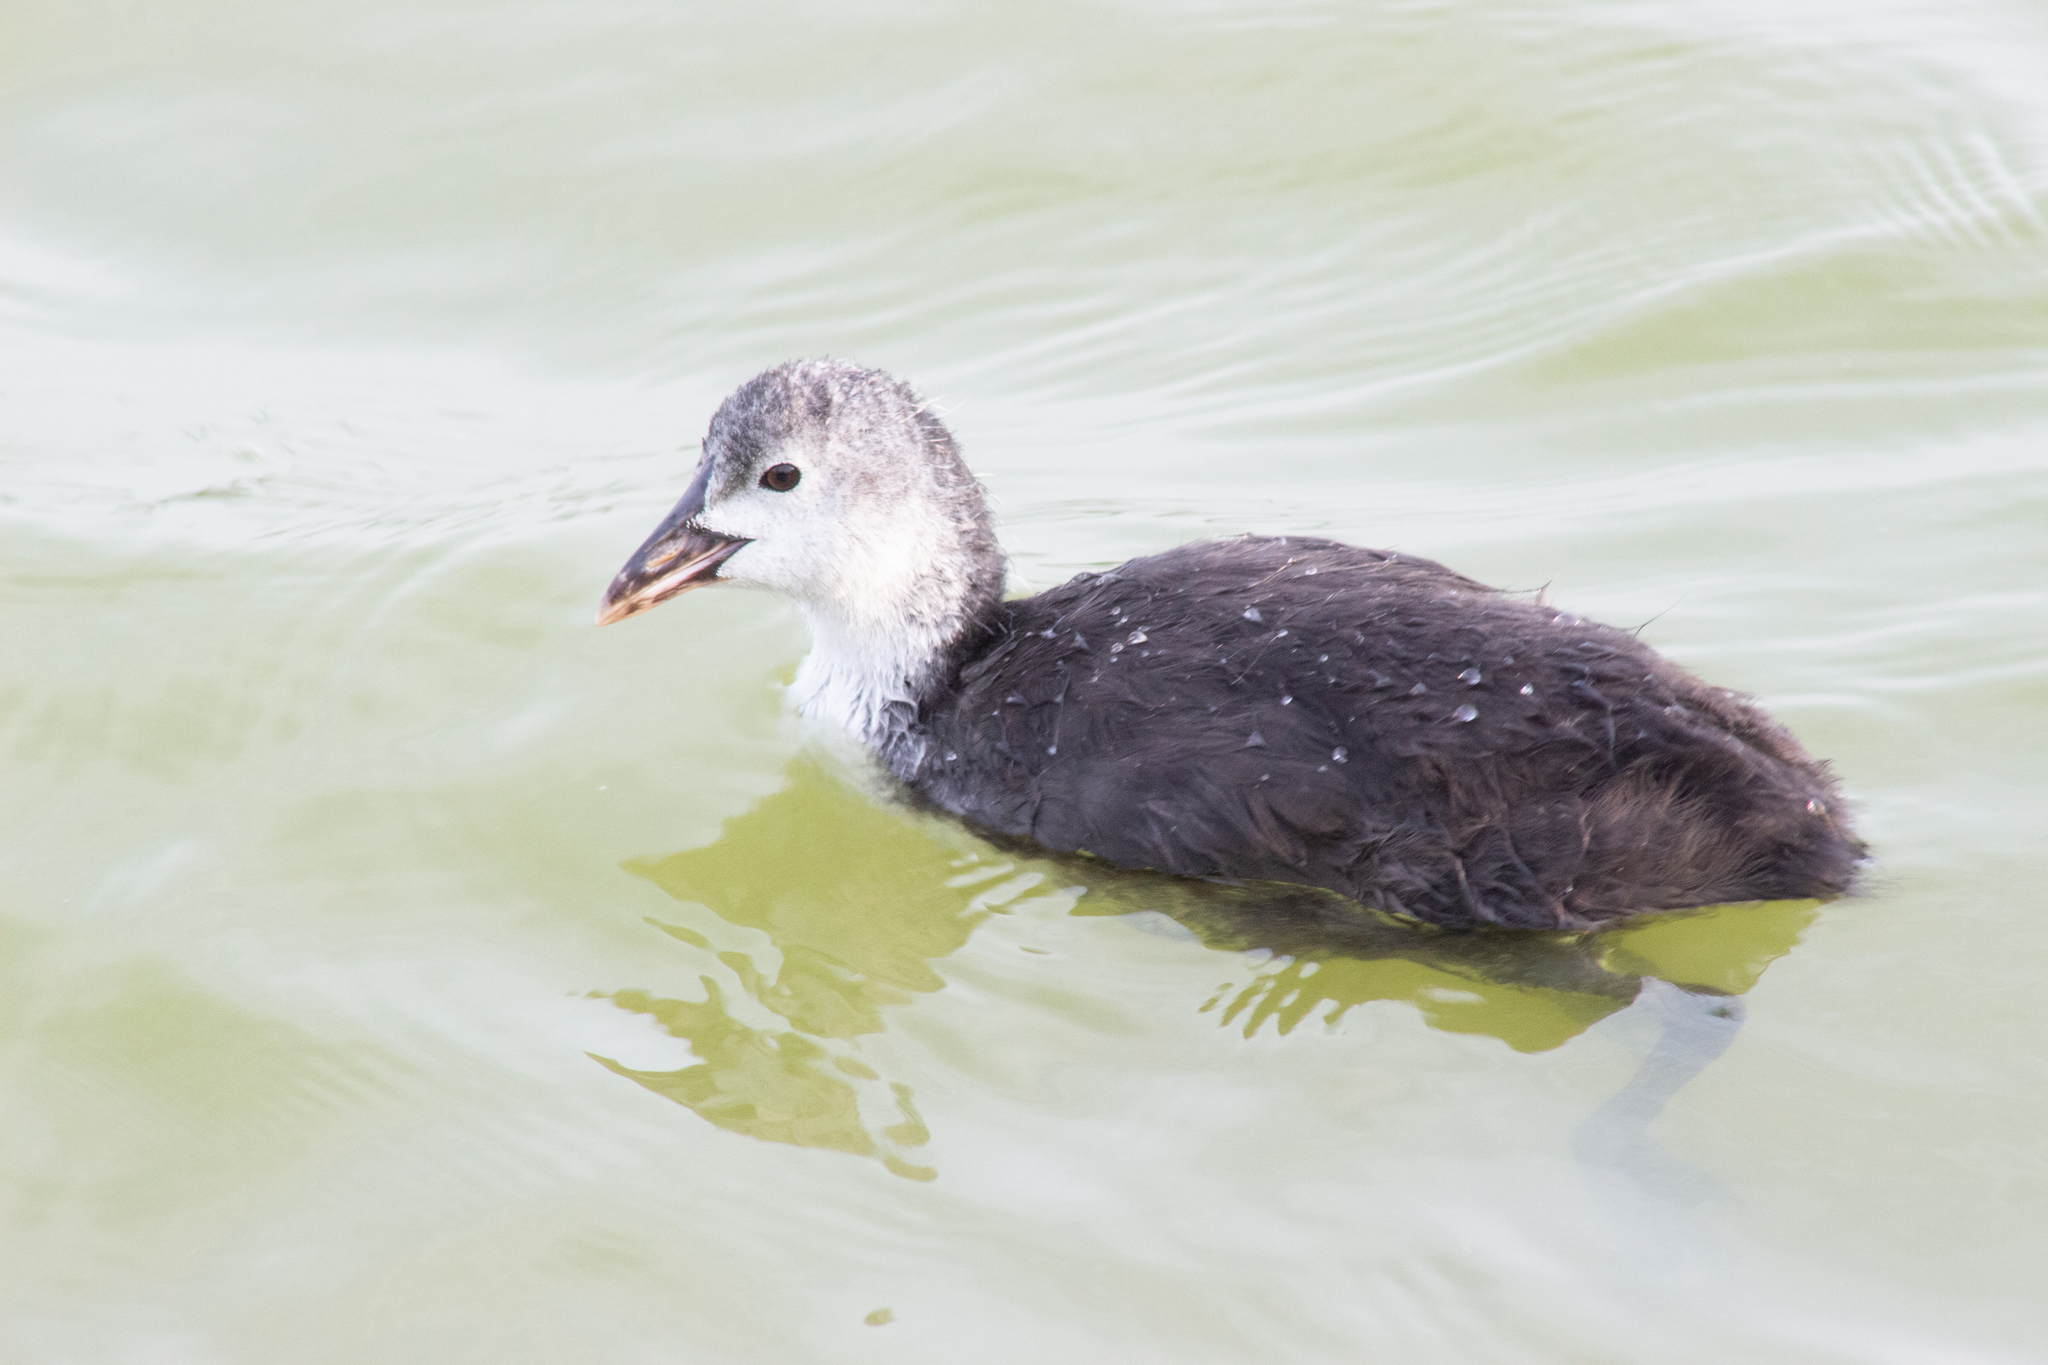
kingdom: Animalia
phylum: Chordata
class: Aves
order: Gruiformes
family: Rallidae
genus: Fulica
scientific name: Fulica atra
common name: Eurasian coot
